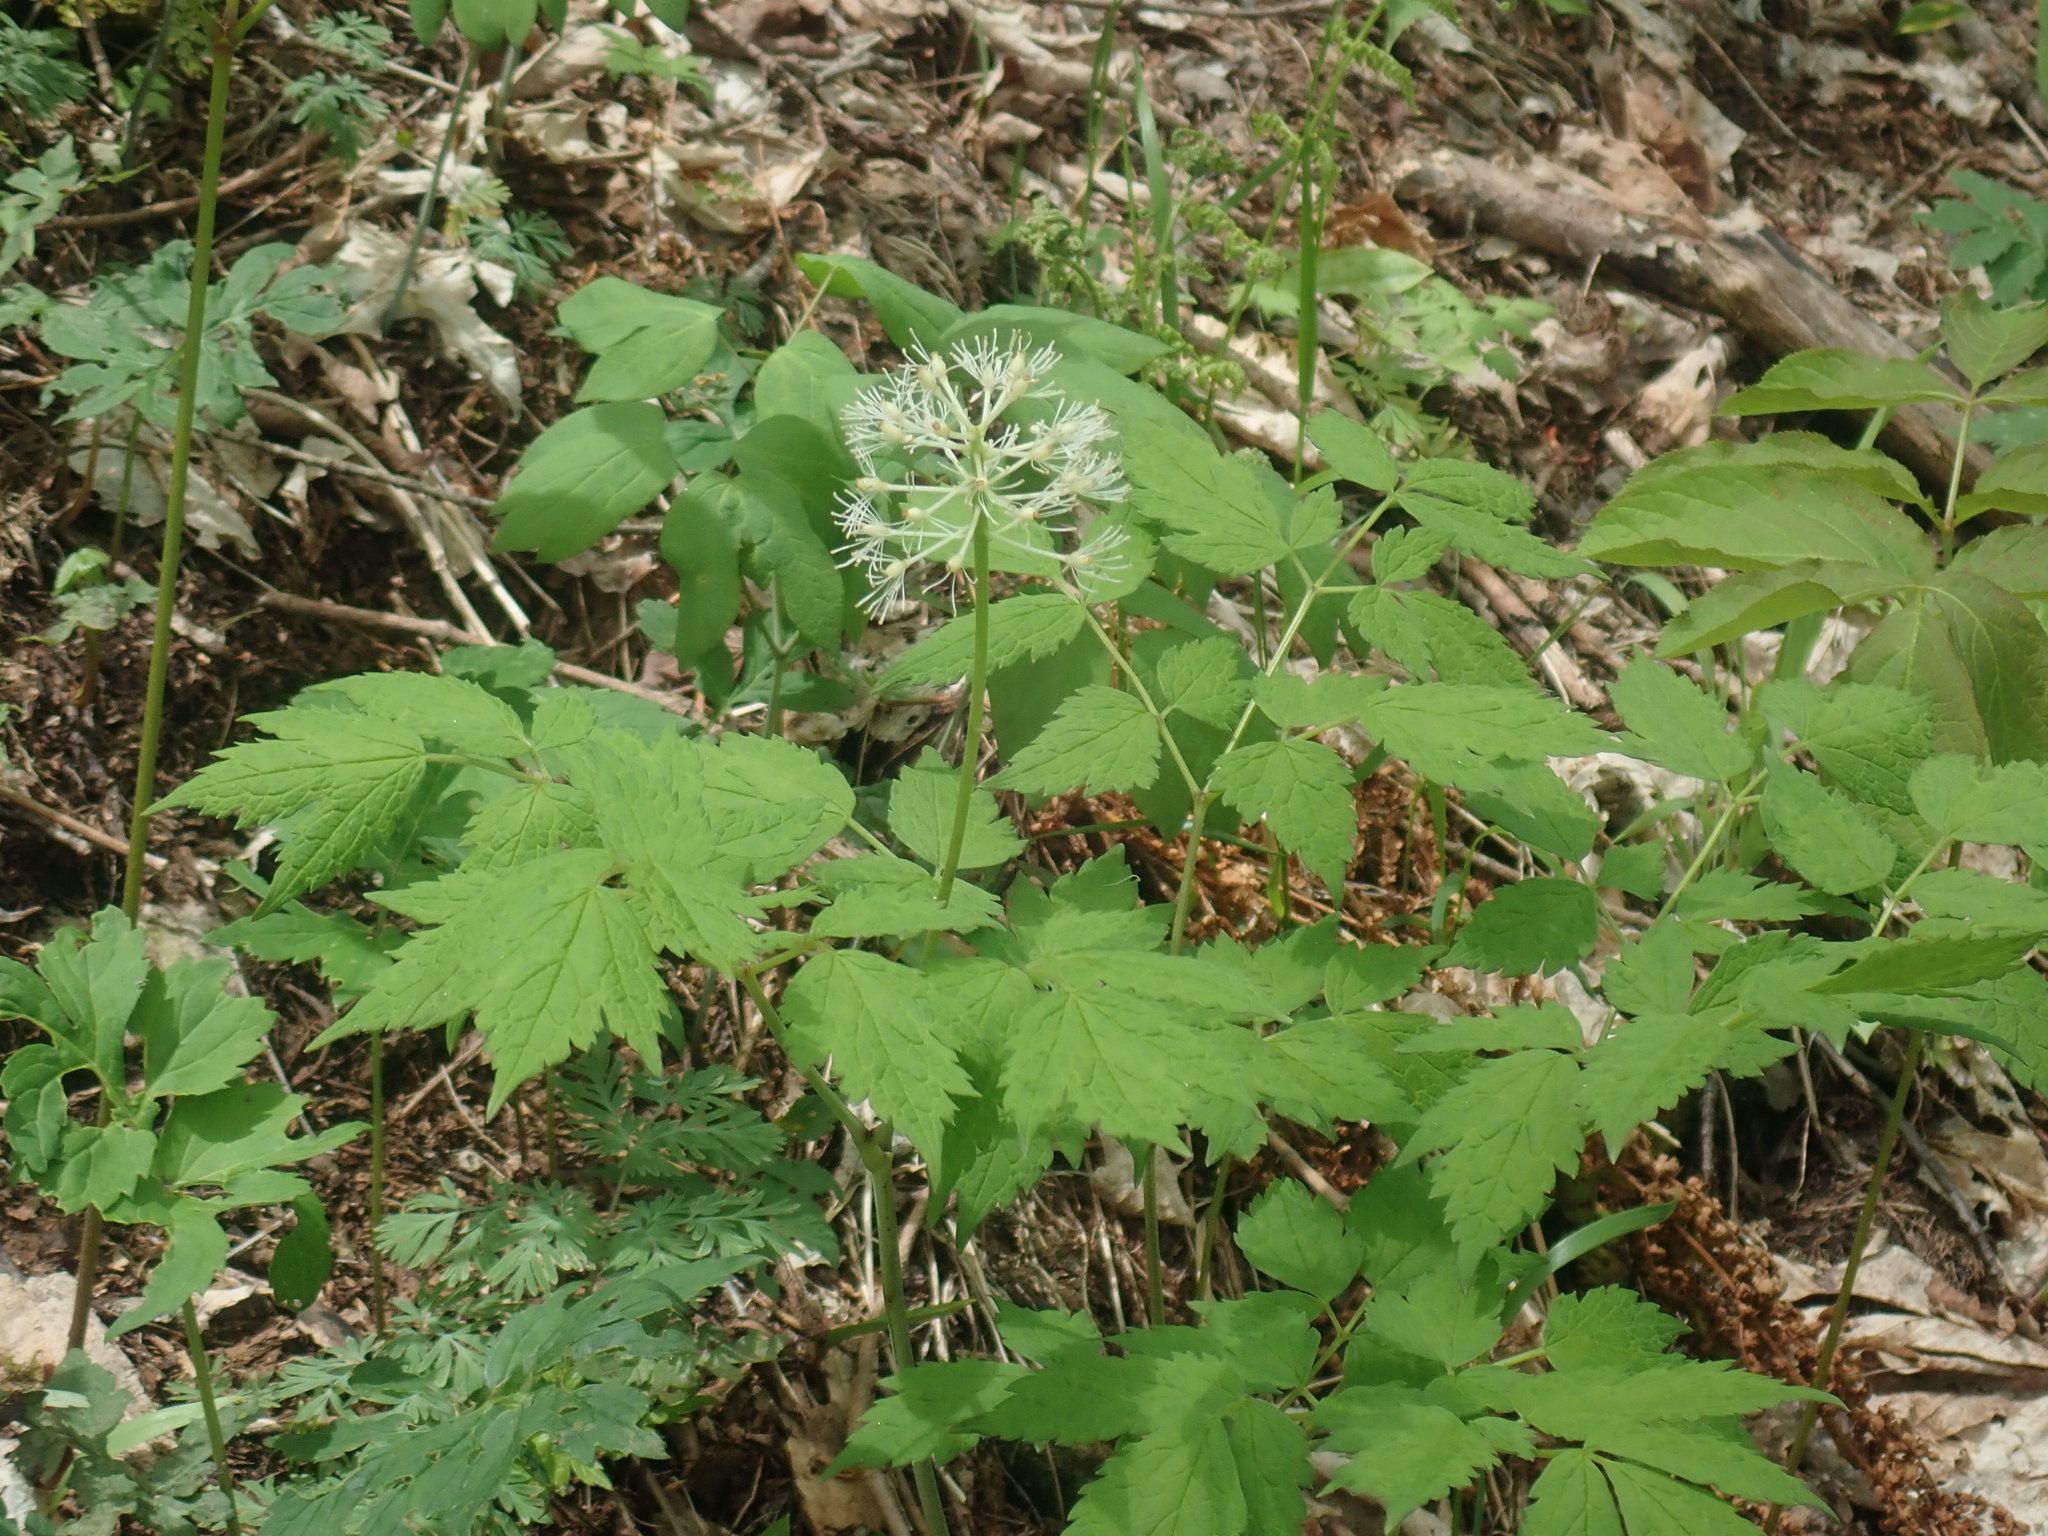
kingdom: Plantae
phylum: Tracheophyta
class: Magnoliopsida
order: Ranunculales
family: Ranunculaceae
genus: Actaea
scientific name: Actaea rubra
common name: Red baneberry
